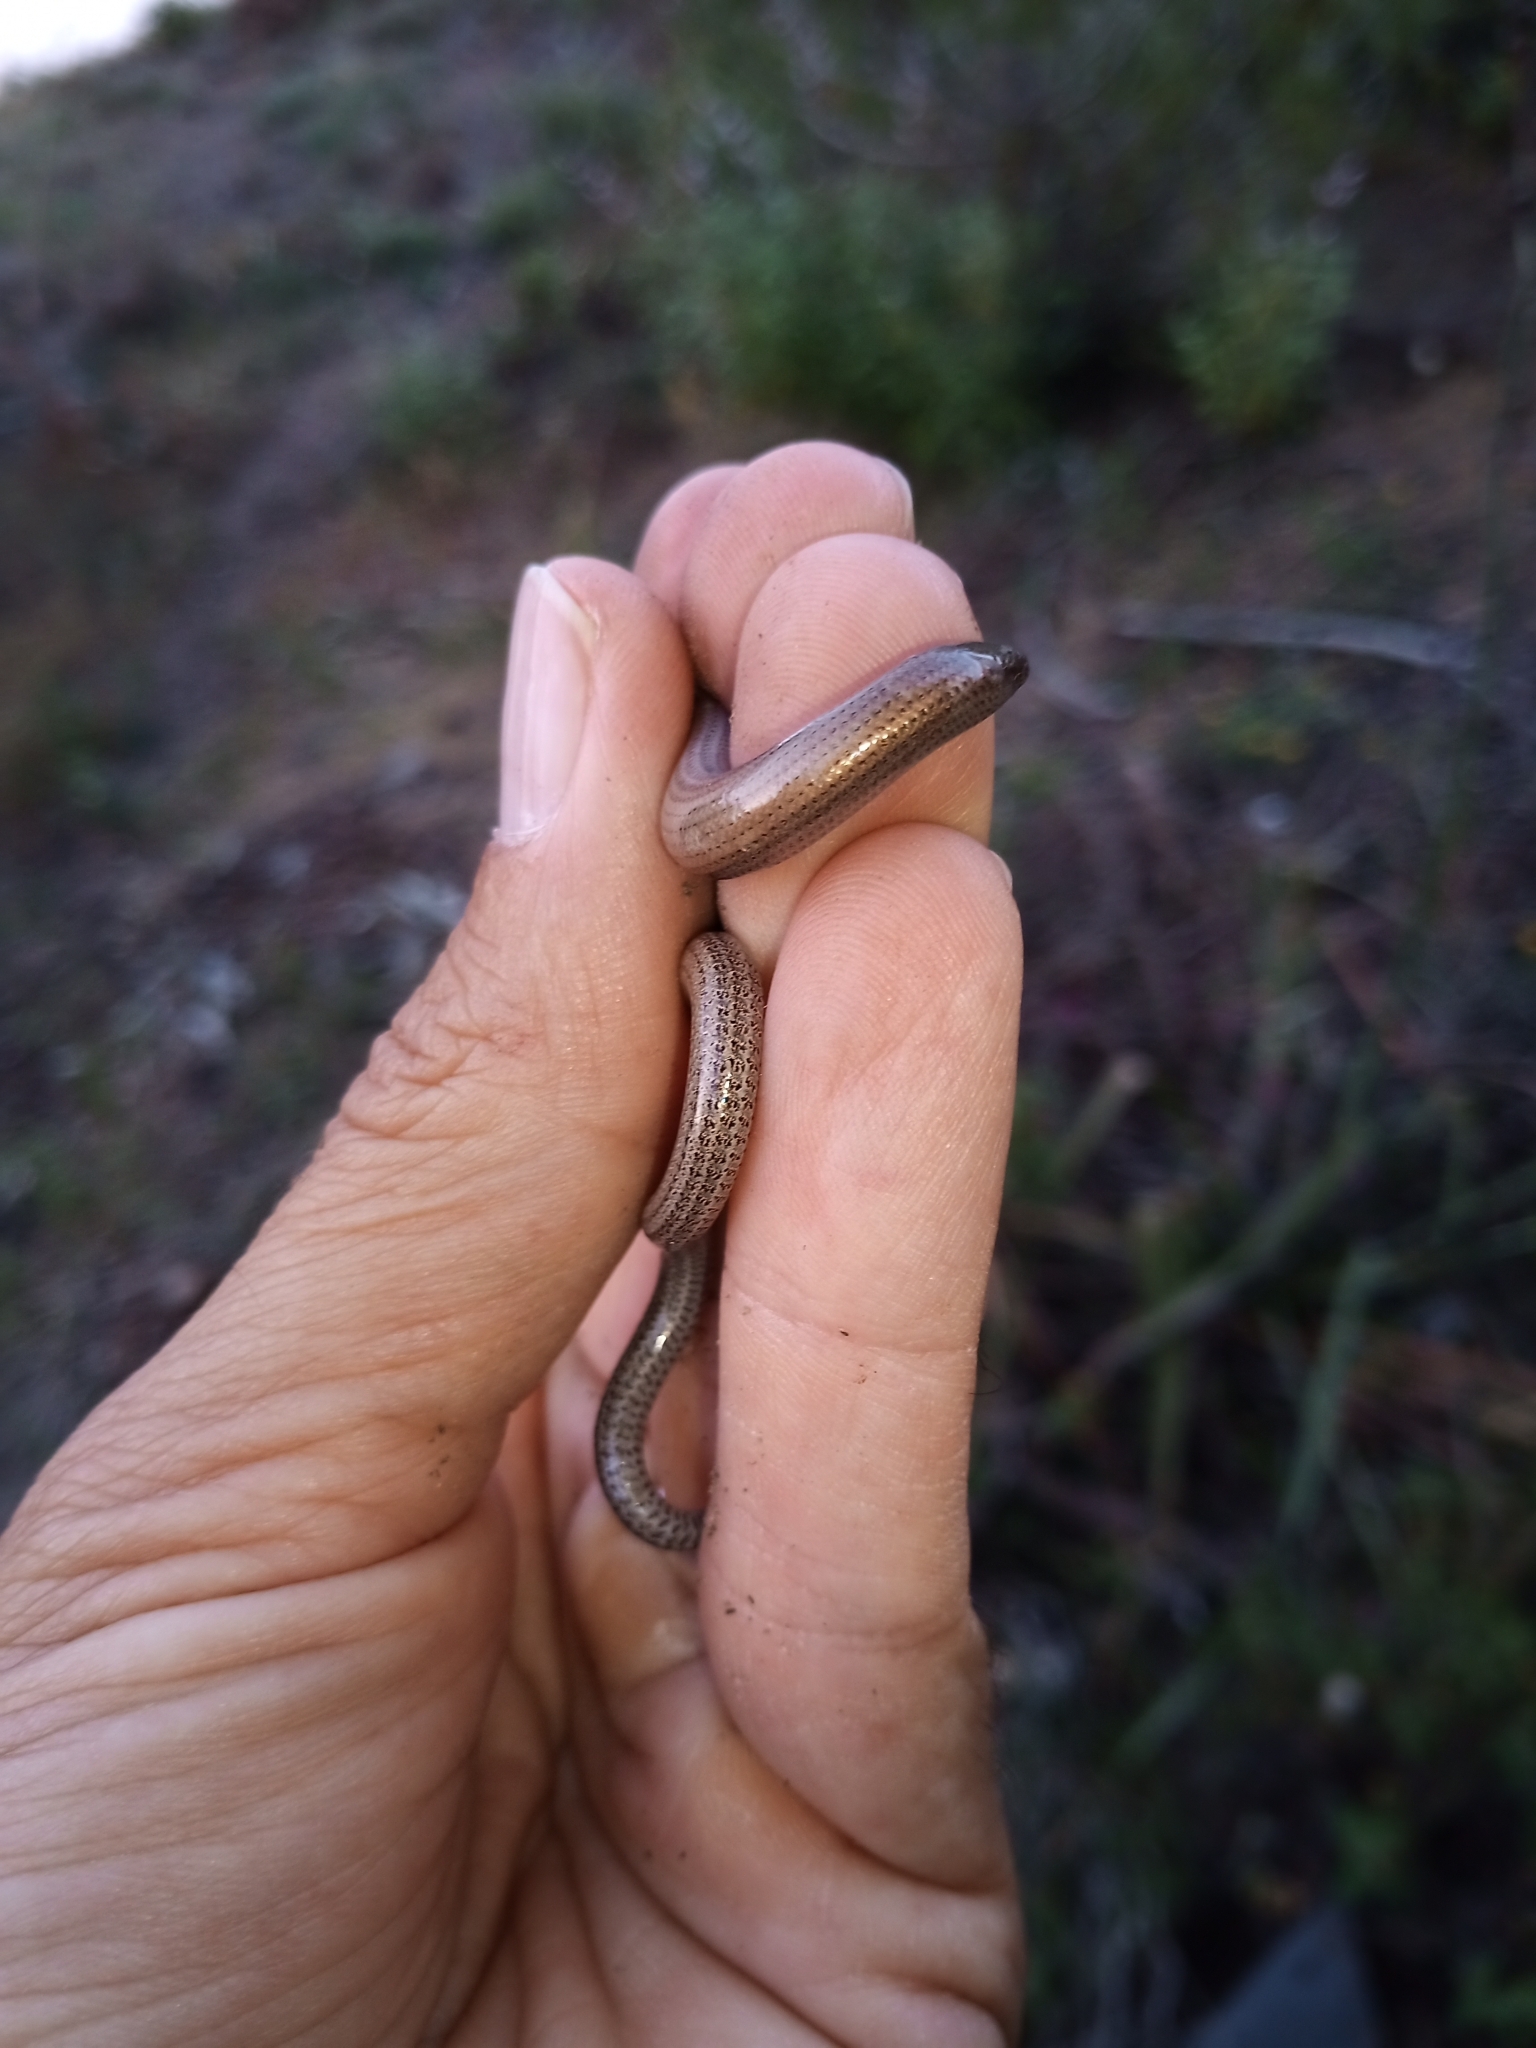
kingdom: Animalia
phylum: Chordata
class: Squamata
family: Scincidae
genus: Ophiomorus
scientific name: Ophiomorus punctatissimus
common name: Greek snake skink
